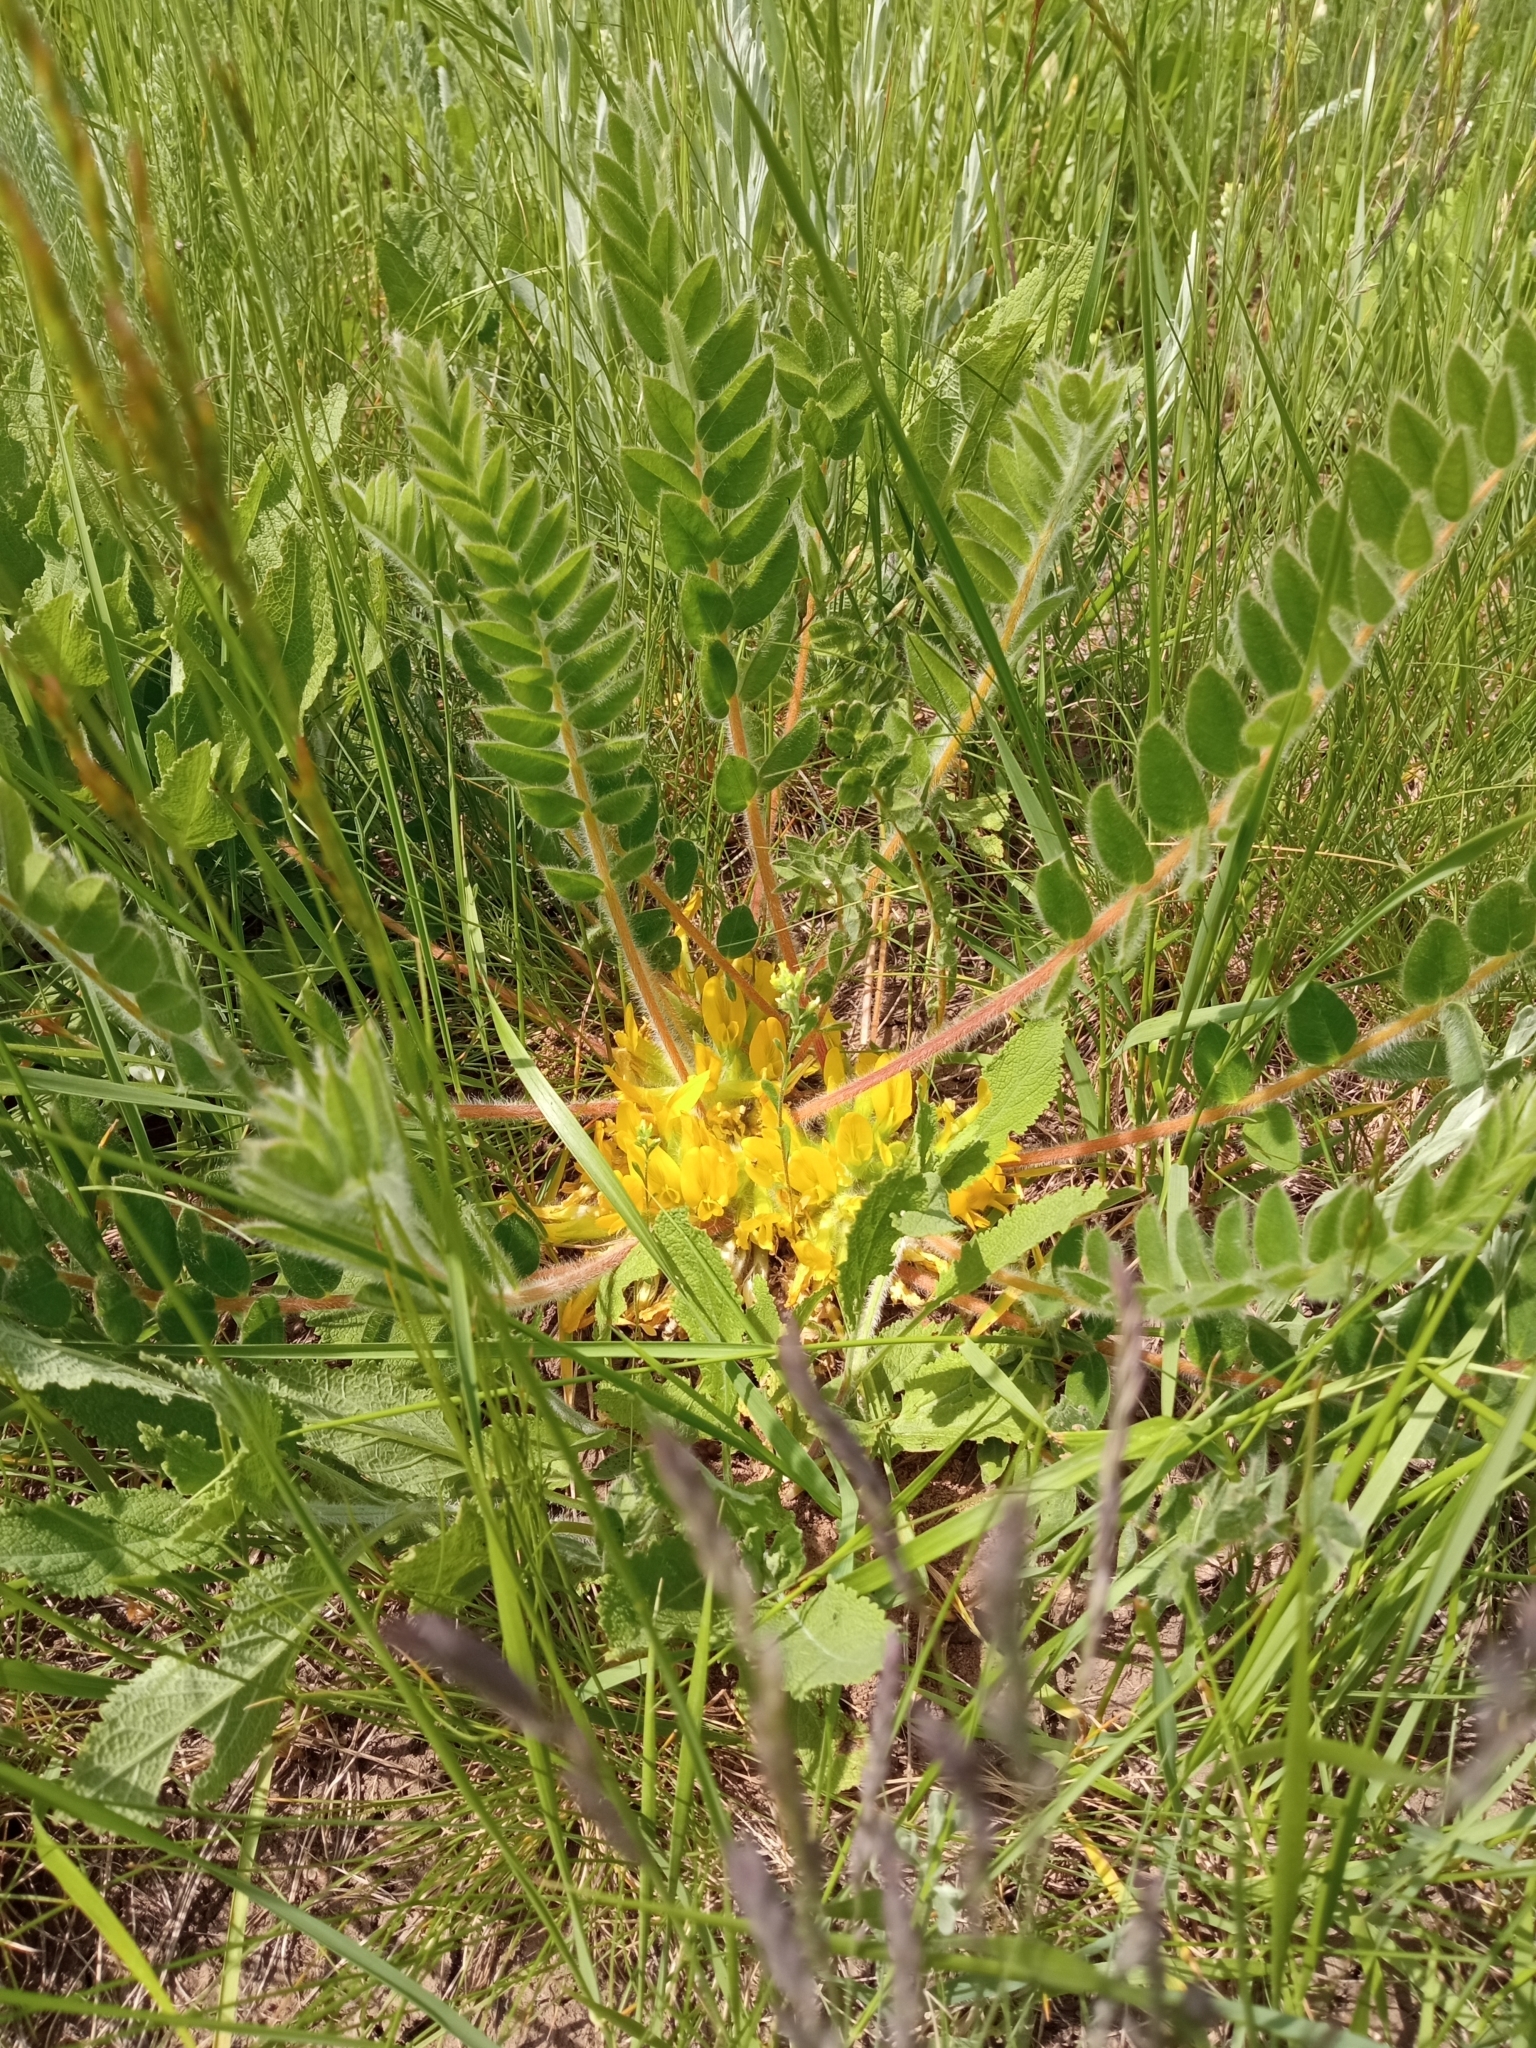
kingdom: Plantae
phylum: Tracheophyta
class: Magnoliopsida
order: Fabales
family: Fabaceae
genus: Astragalus
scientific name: Astragalus exscapus
